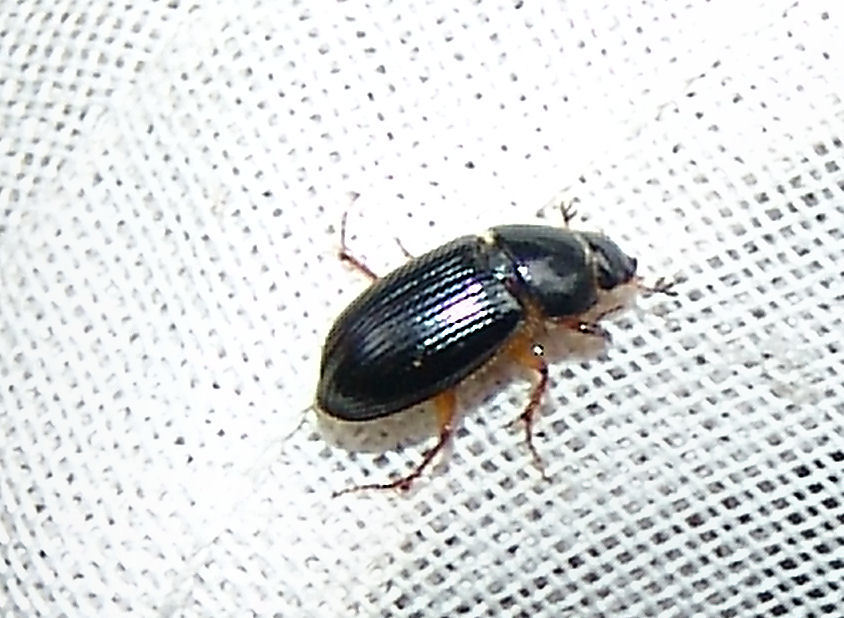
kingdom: Animalia
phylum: Arthropoda
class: Insecta
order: Coleoptera
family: Scarabaeidae
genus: Pseudagolius
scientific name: Pseudagolius bicolor
